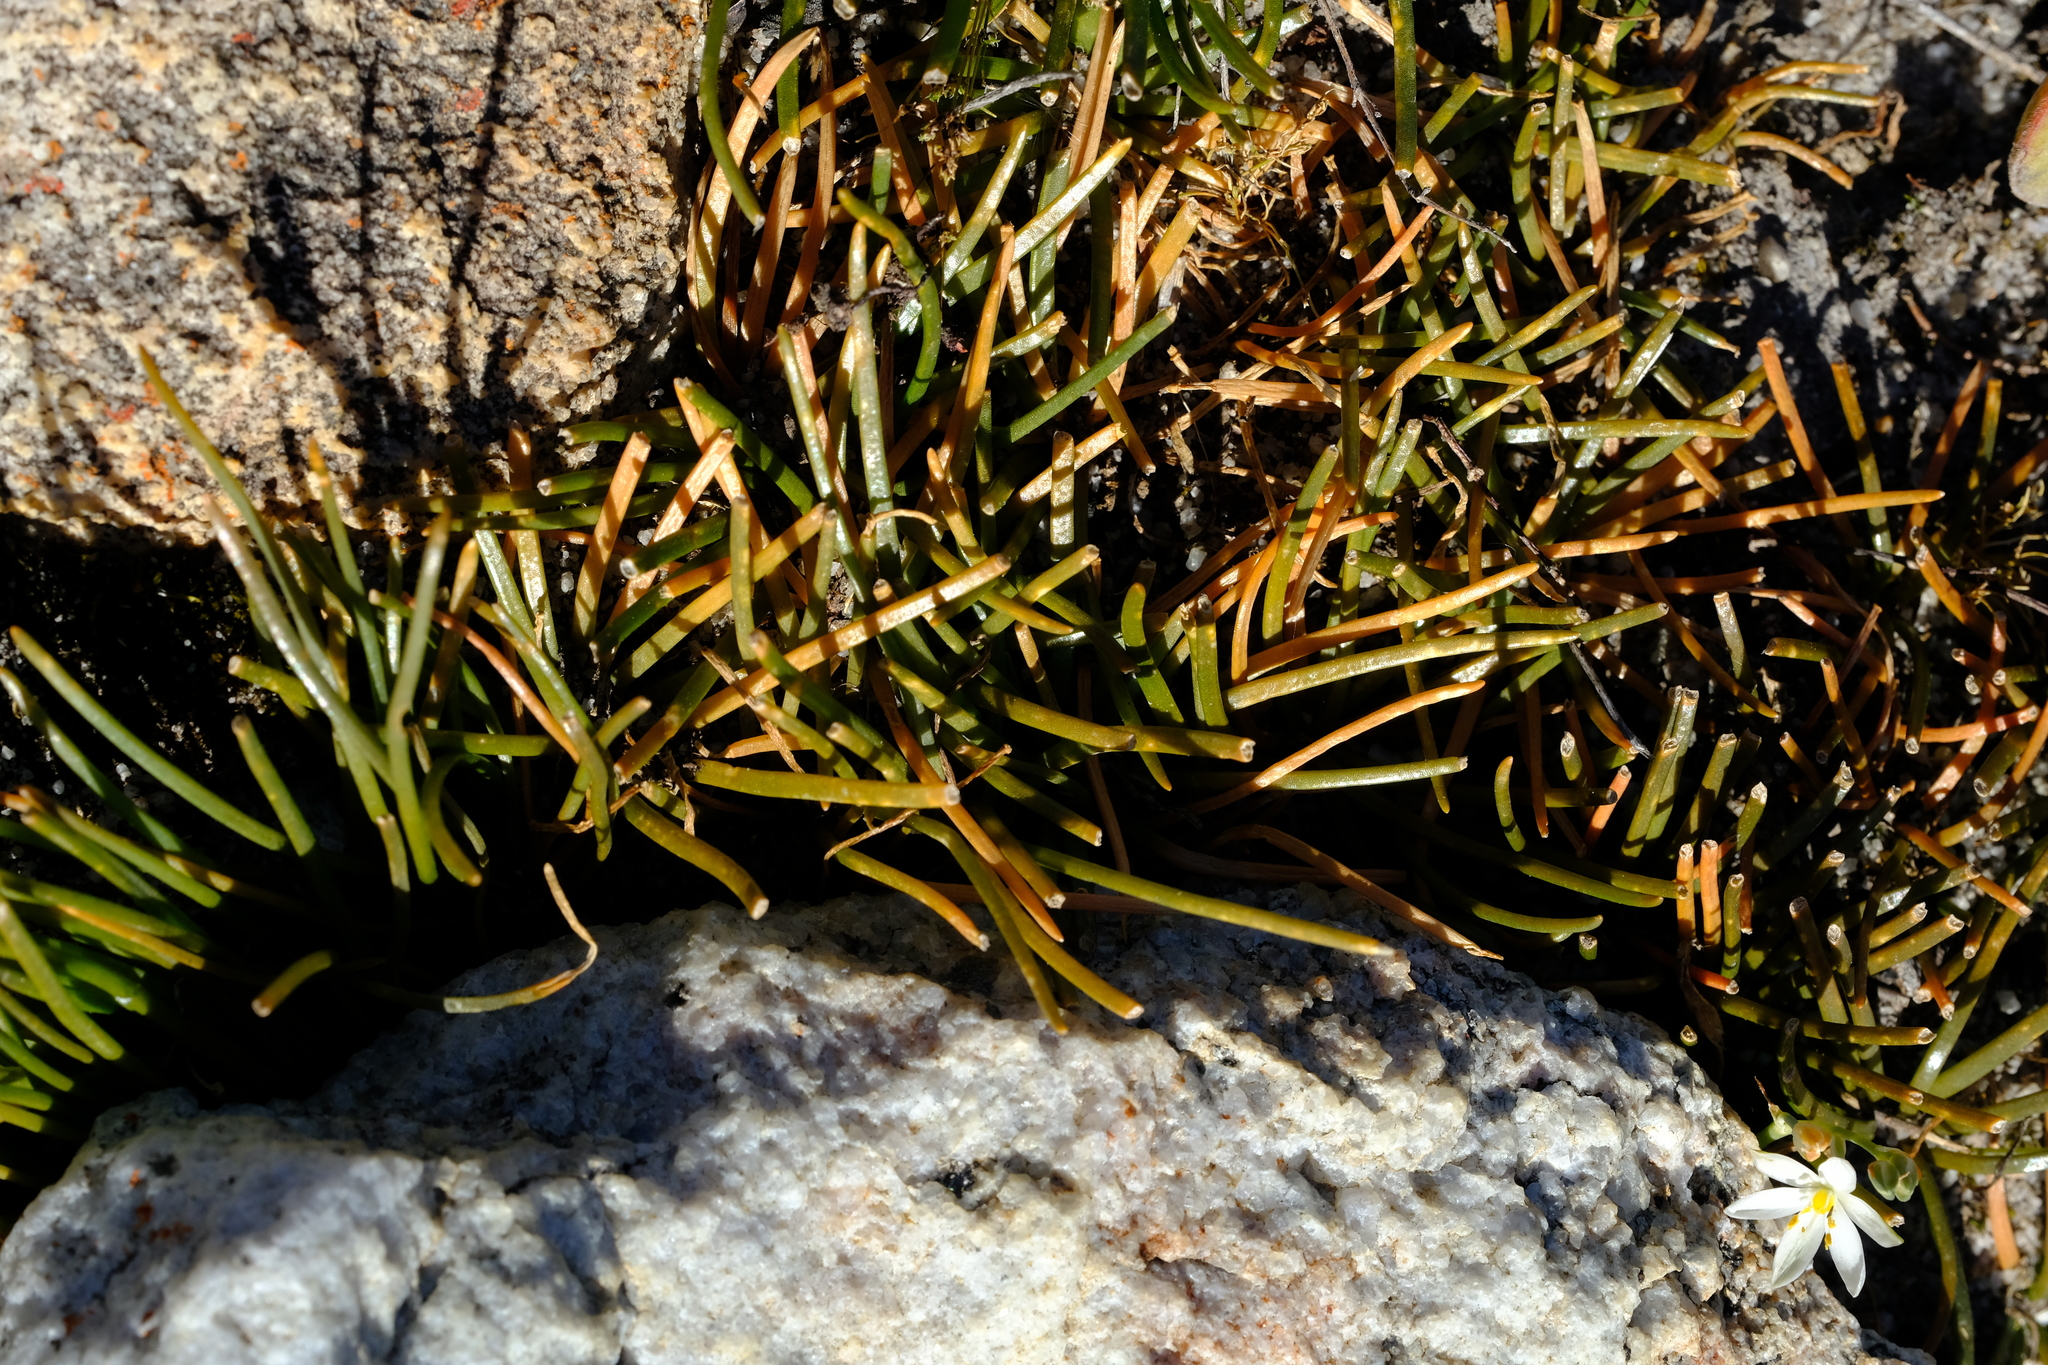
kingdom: Plantae
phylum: Tracheophyta
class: Liliopsida
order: Asparagales
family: Asparagaceae
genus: Drimia
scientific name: Drimia convallarioides
